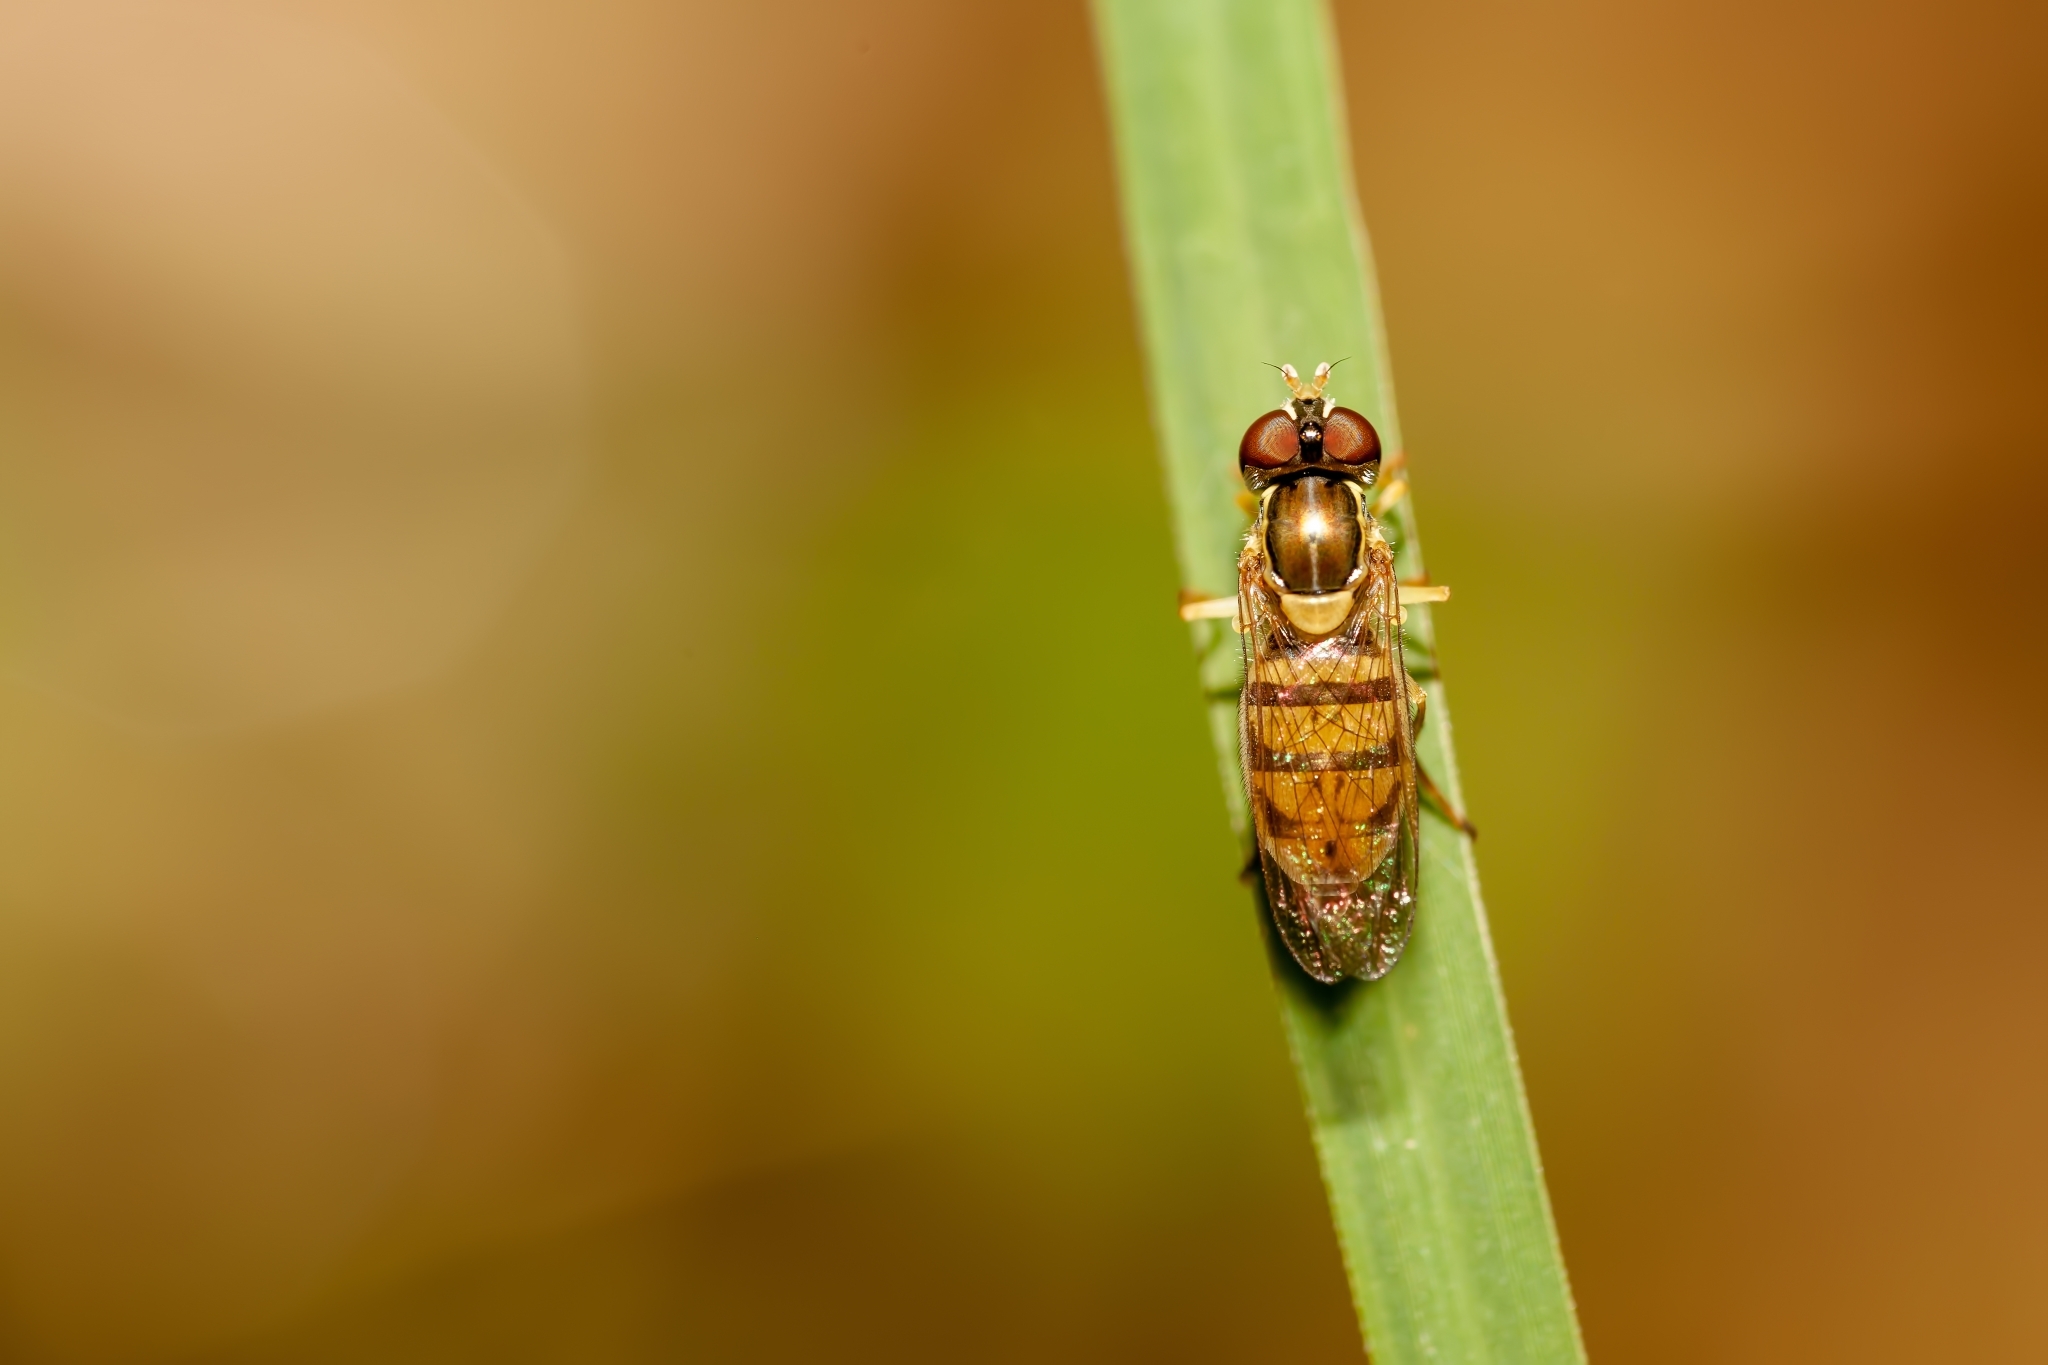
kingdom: Animalia
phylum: Arthropoda
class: Insecta
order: Diptera
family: Syrphidae
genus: Toxomerus
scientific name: Toxomerus marginatus
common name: Syrphid fly
